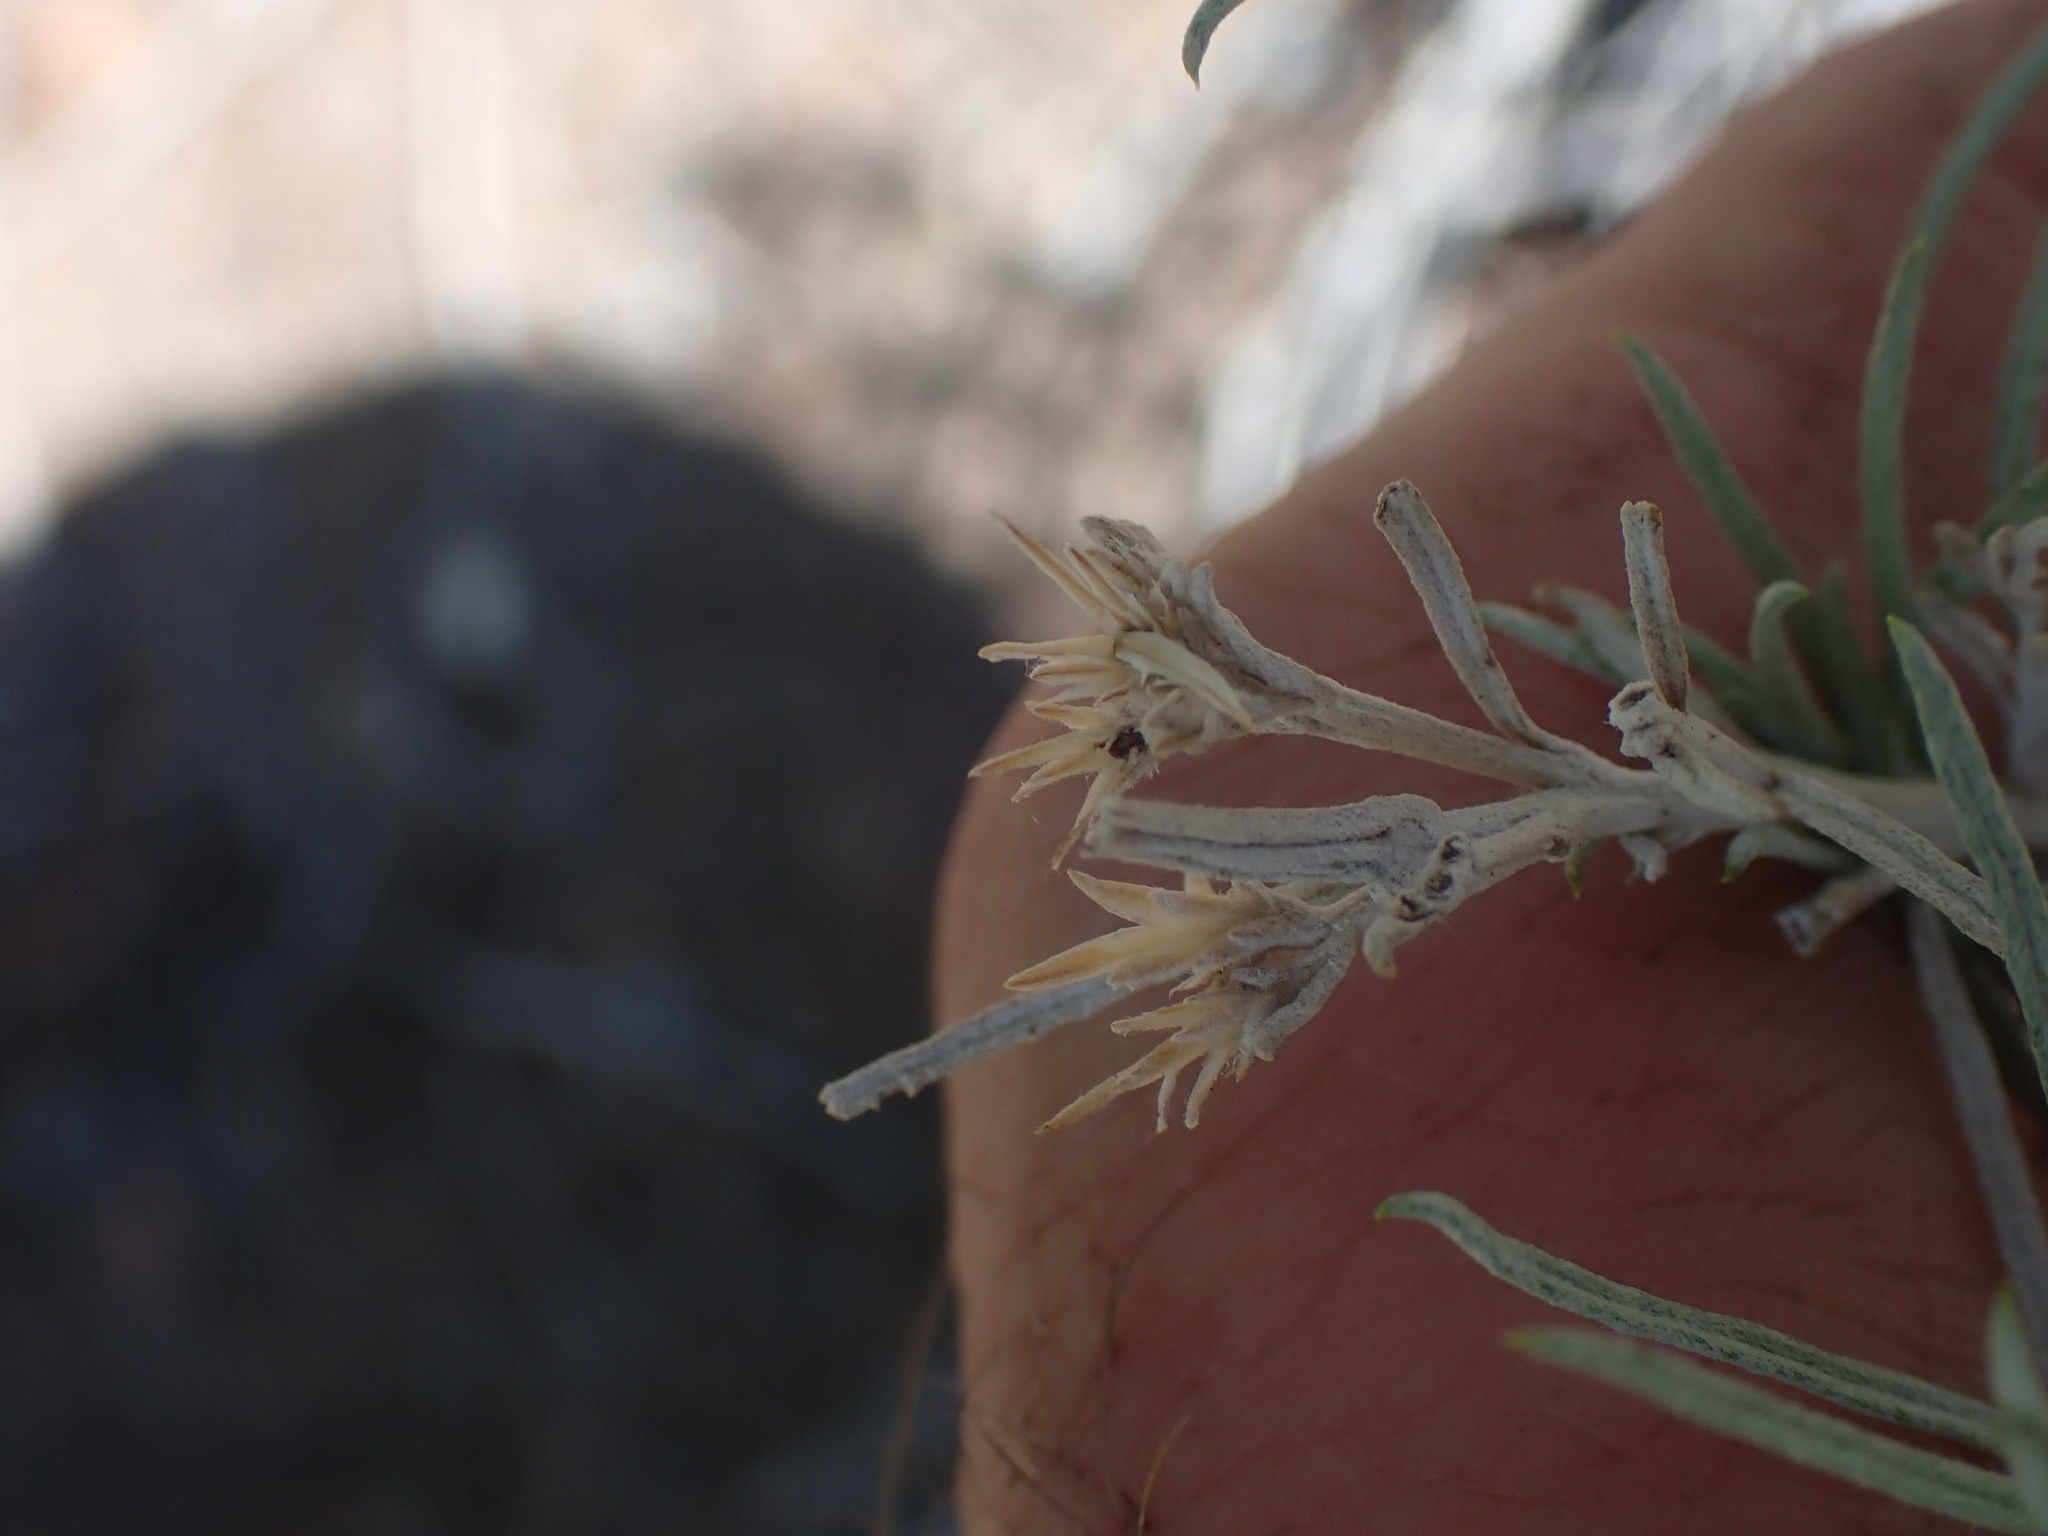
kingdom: Plantae
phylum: Tracheophyta
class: Magnoliopsida
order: Asterales
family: Asteraceae
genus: Ericameria
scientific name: Ericameria nauseosa
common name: Rubber rabbitbrush
